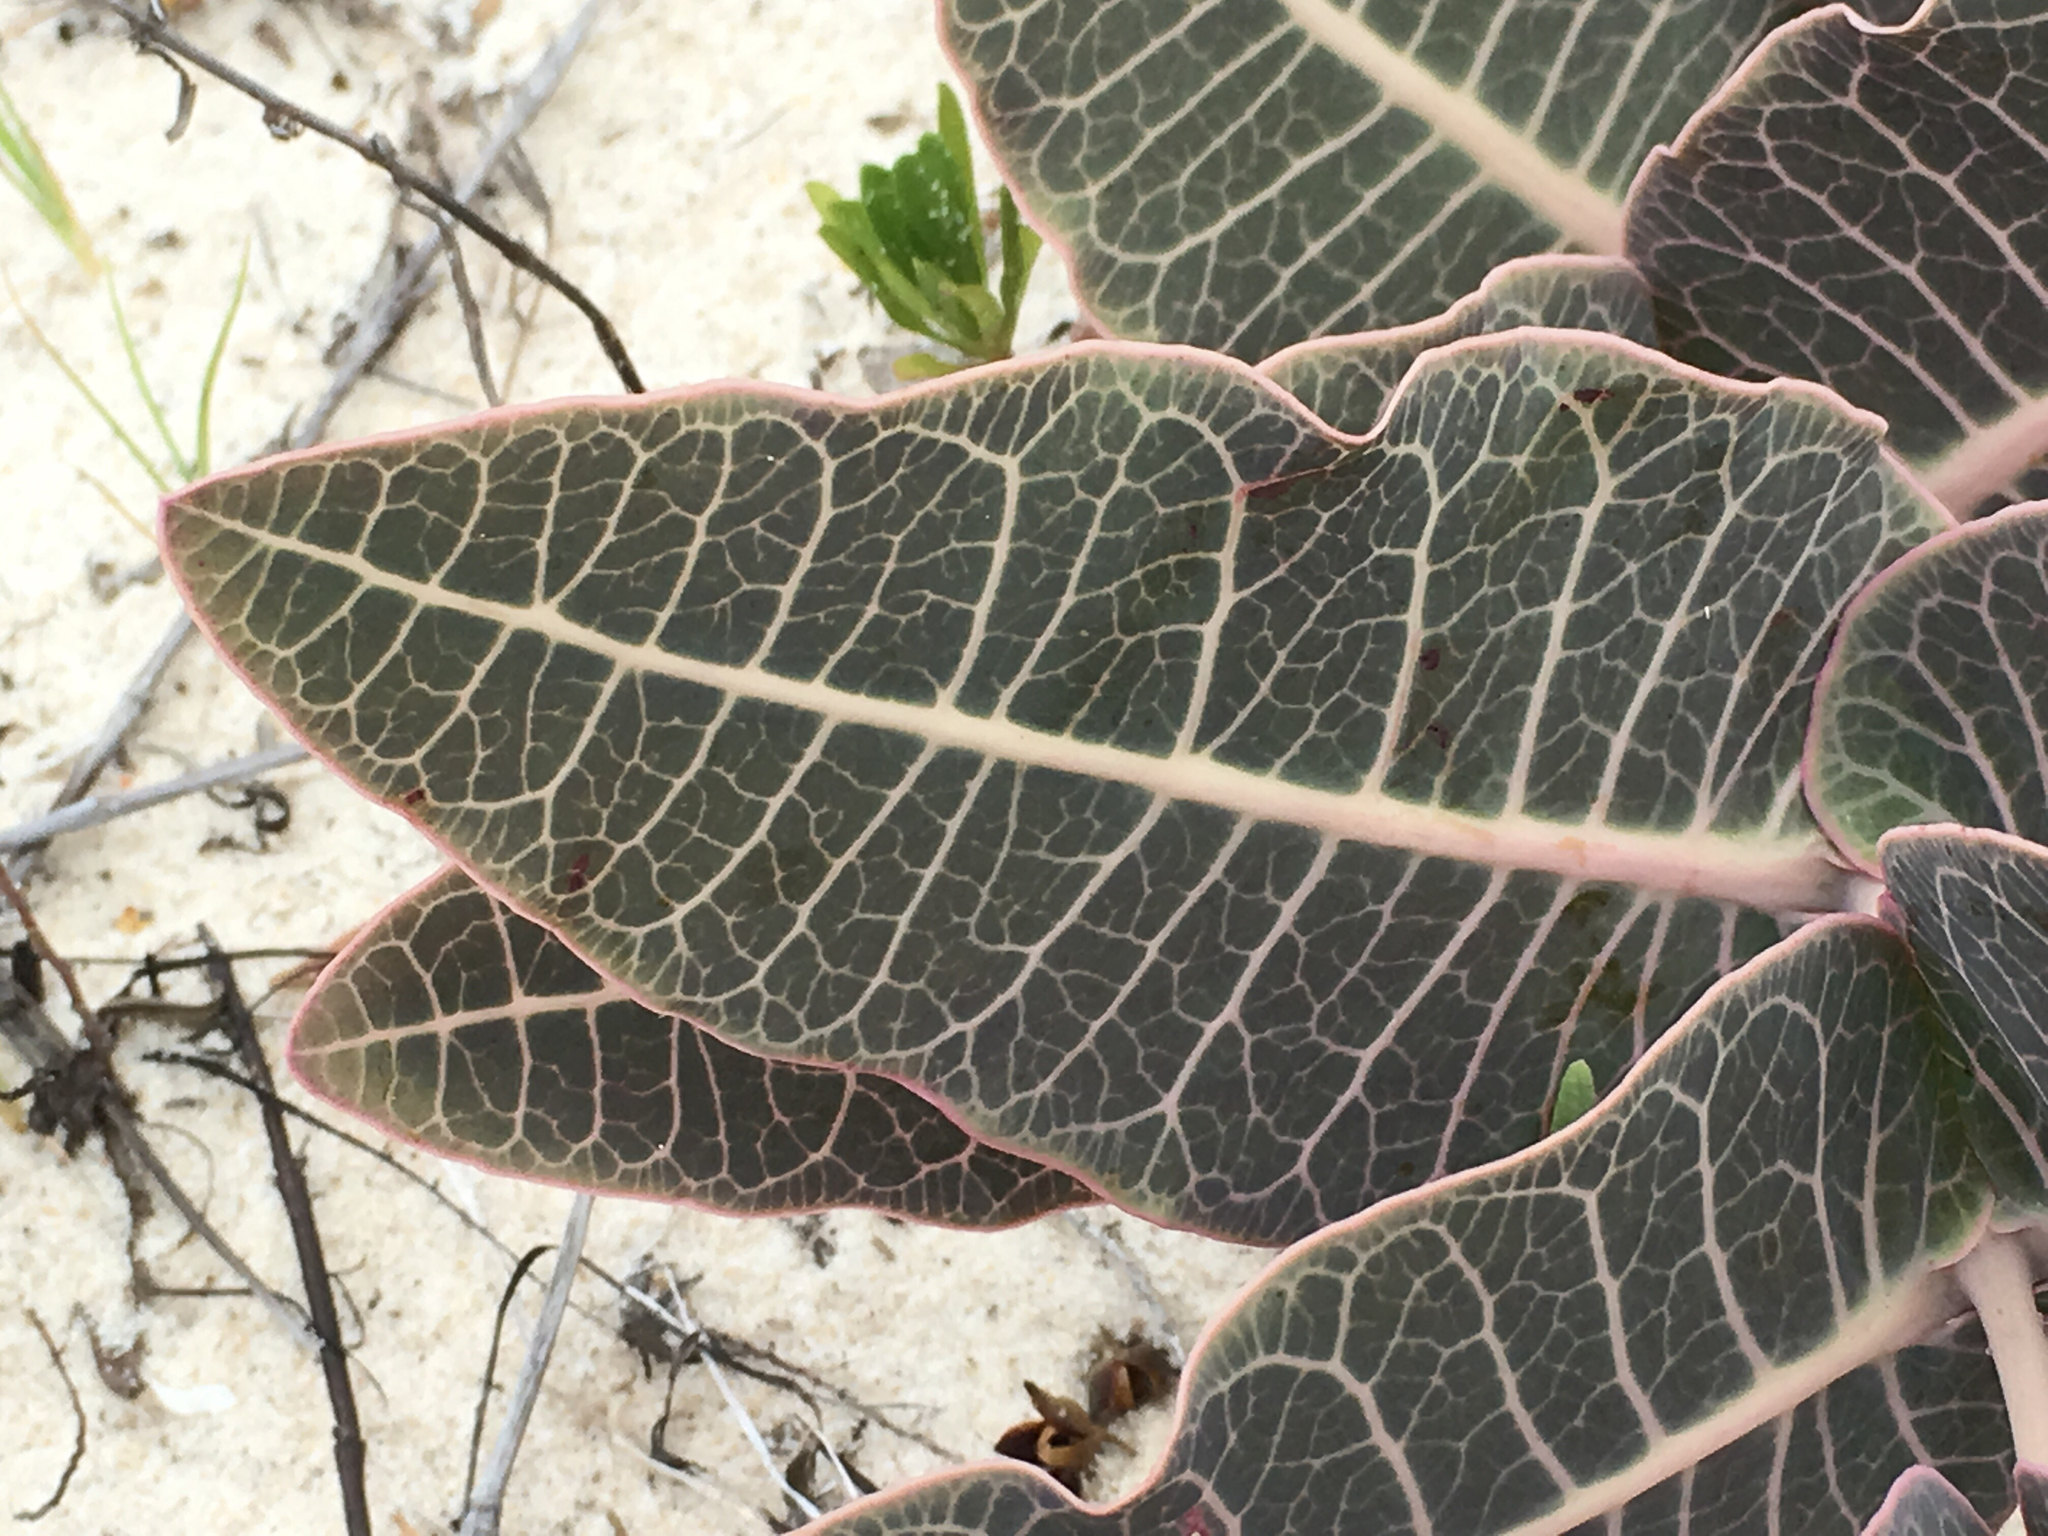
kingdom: Plantae
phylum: Tracheophyta
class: Magnoliopsida
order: Gentianales
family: Apocynaceae
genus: Asclepias
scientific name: Asclepias humistrata
